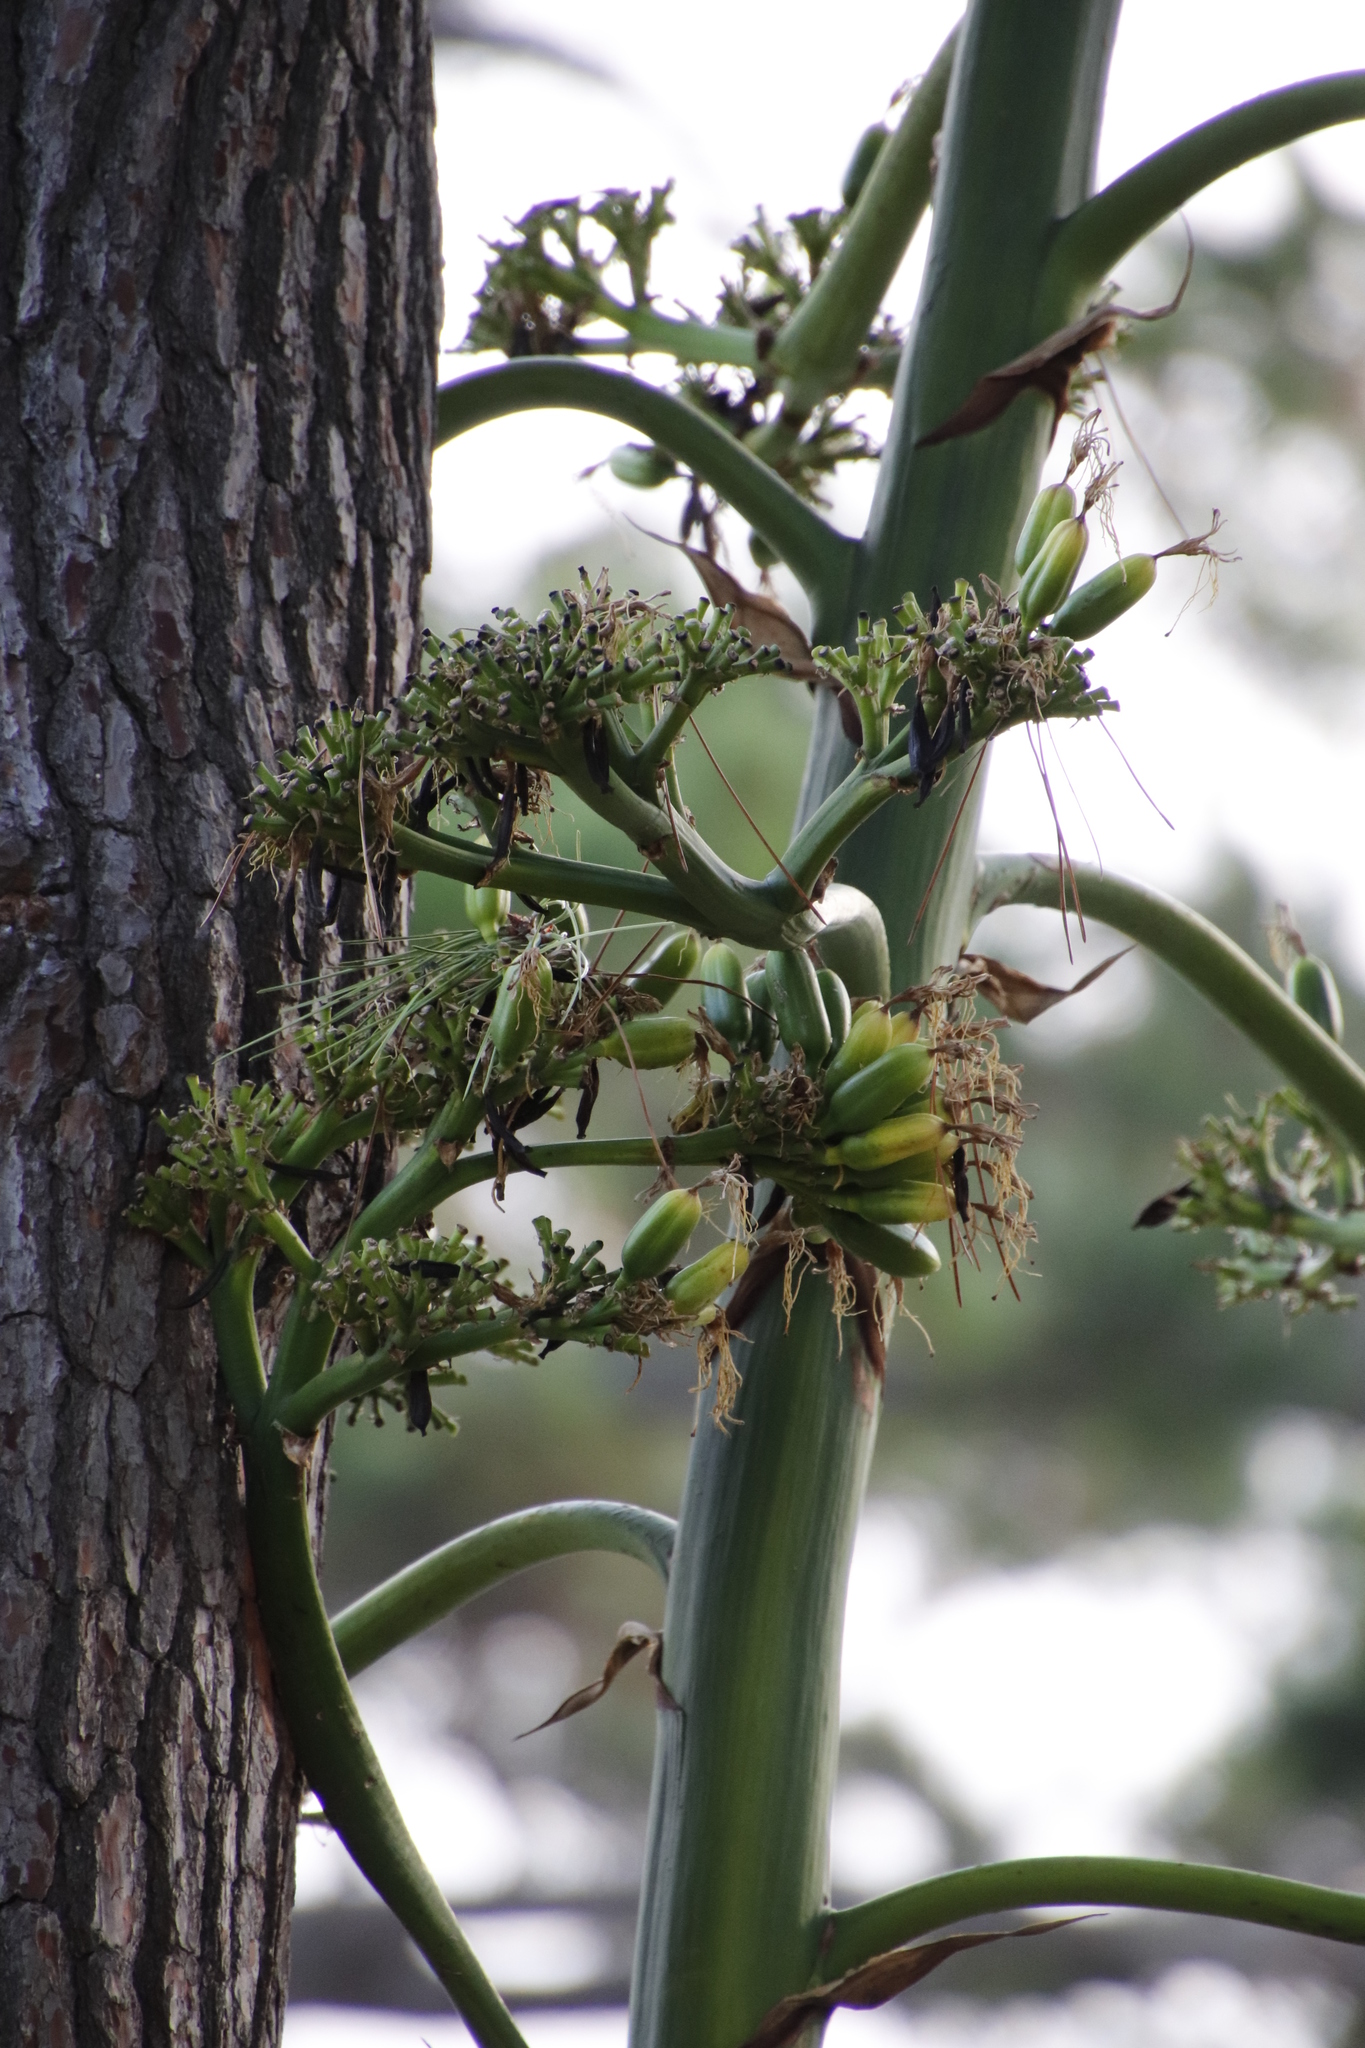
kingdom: Plantae
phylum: Tracheophyta
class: Liliopsida
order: Asparagales
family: Asparagaceae
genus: Agave
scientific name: Agave americana
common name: Centuryplant
